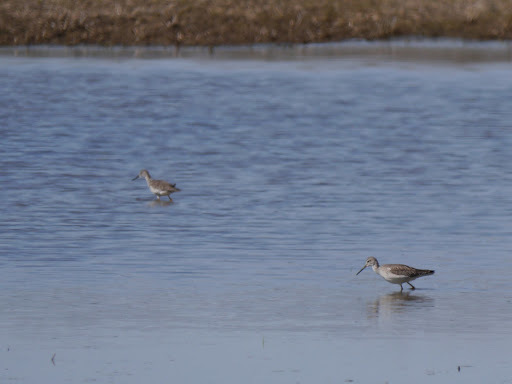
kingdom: Animalia
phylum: Chordata
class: Aves
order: Charadriiformes
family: Scolopacidae
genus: Tringa
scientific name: Tringa melanoleuca
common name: Greater yellowlegs
